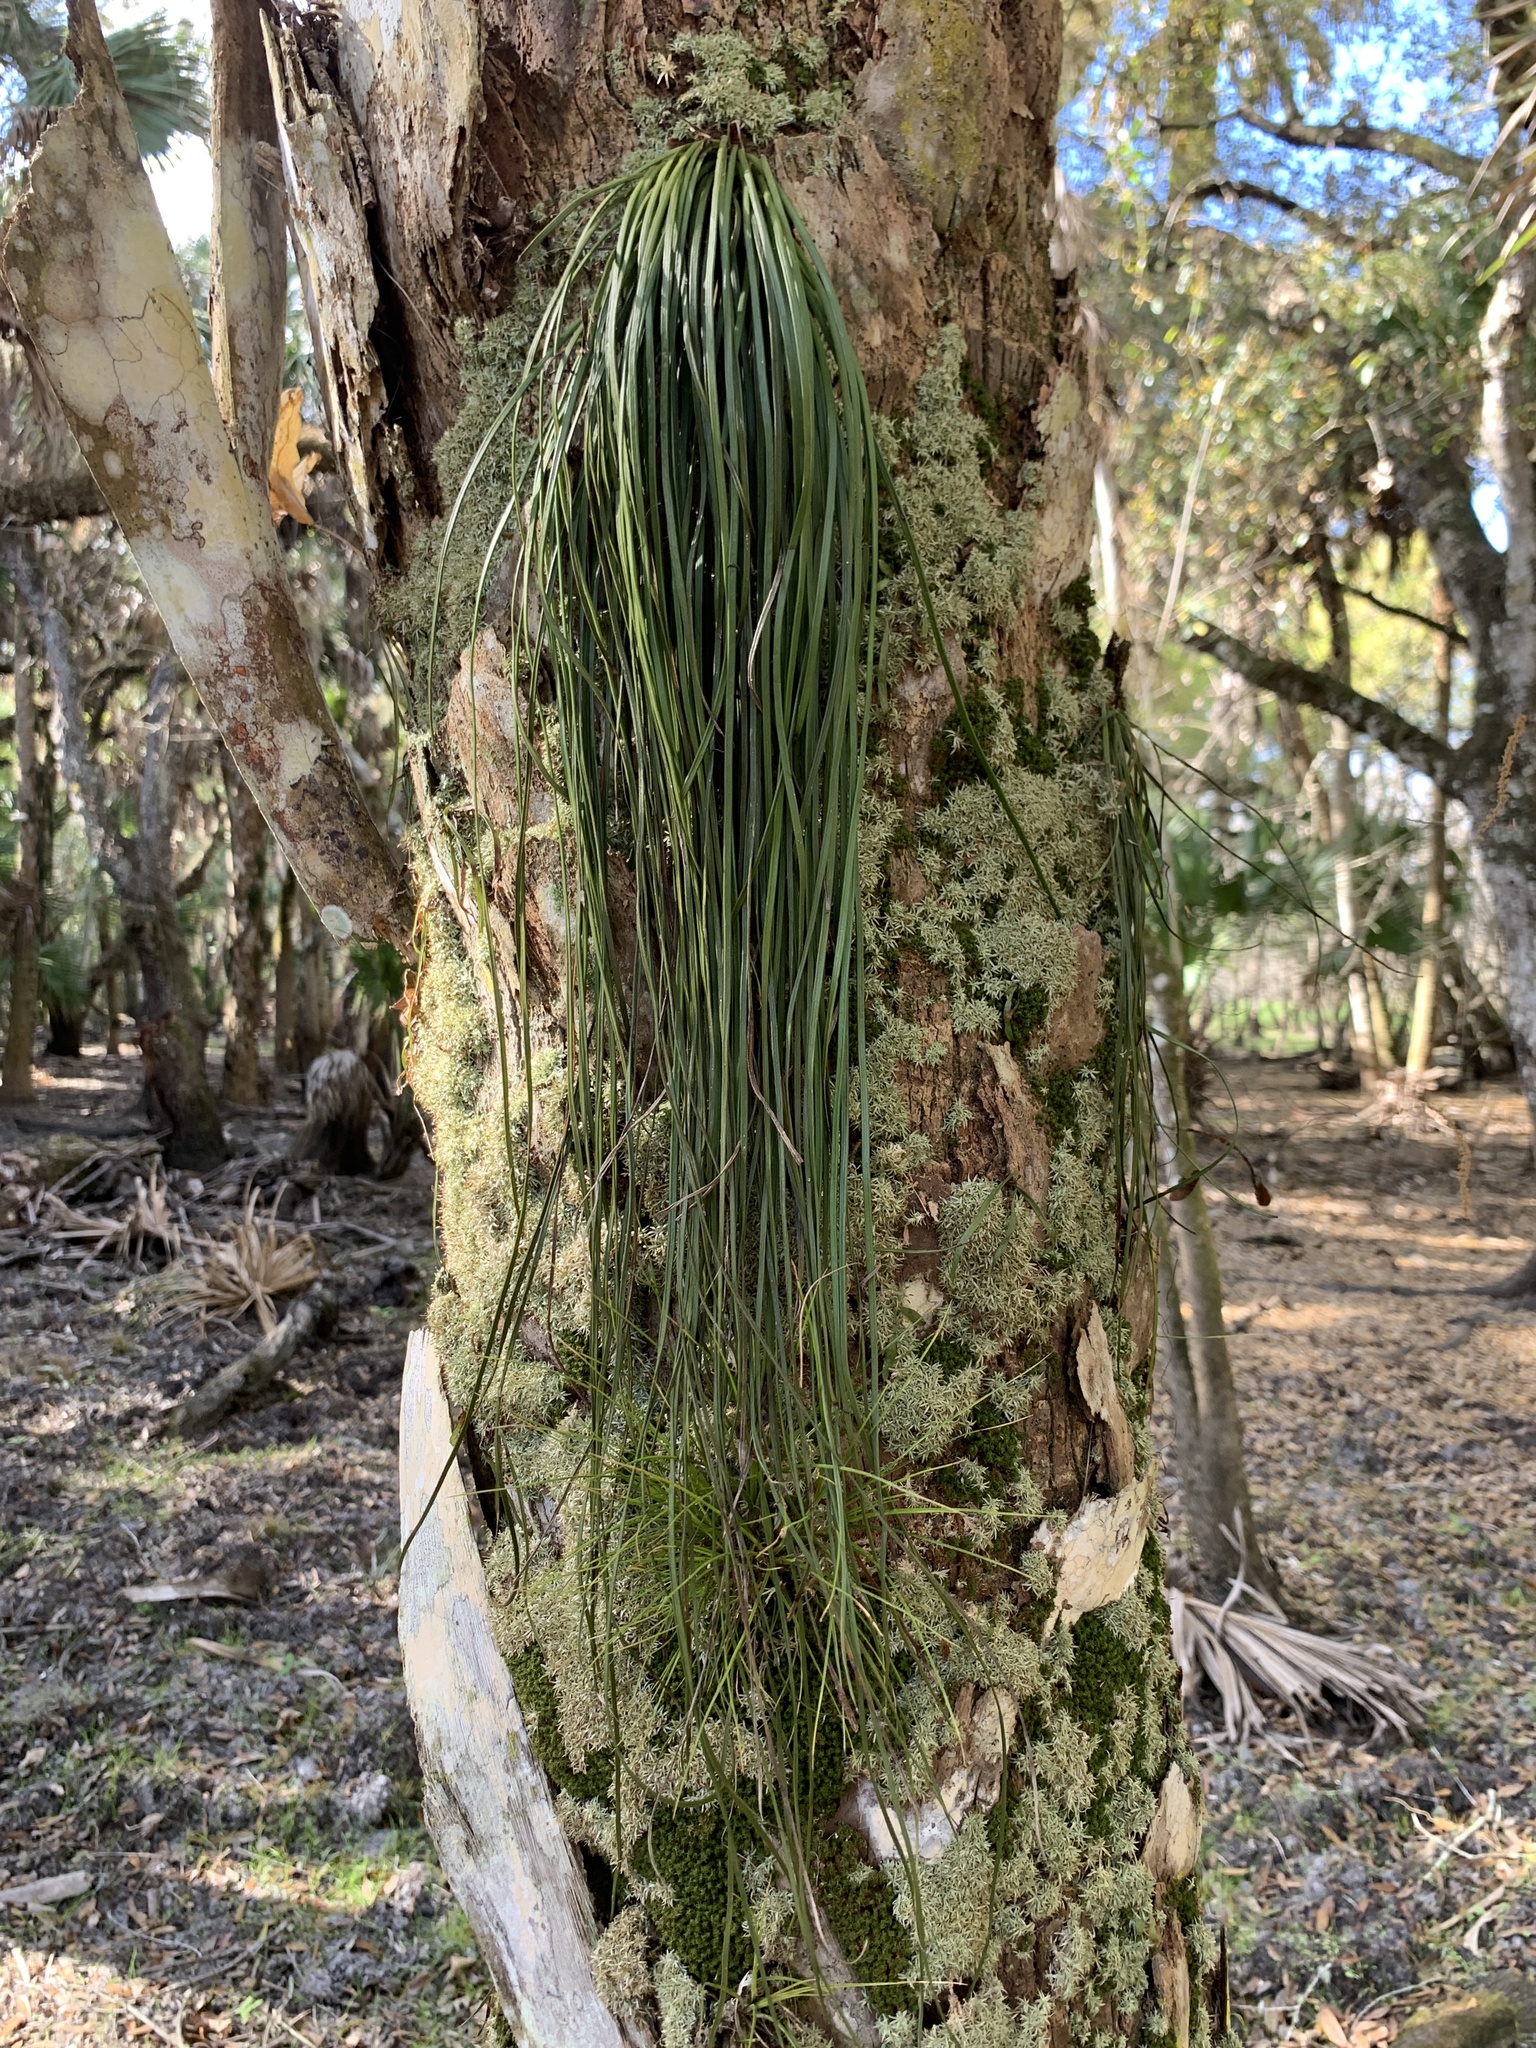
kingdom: Plantae
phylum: Tracheophyta
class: Polypodiopsida
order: Polypodiales
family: Pteridaceae
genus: Vittaria
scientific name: Vittaria lineata
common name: Shoestring fern
